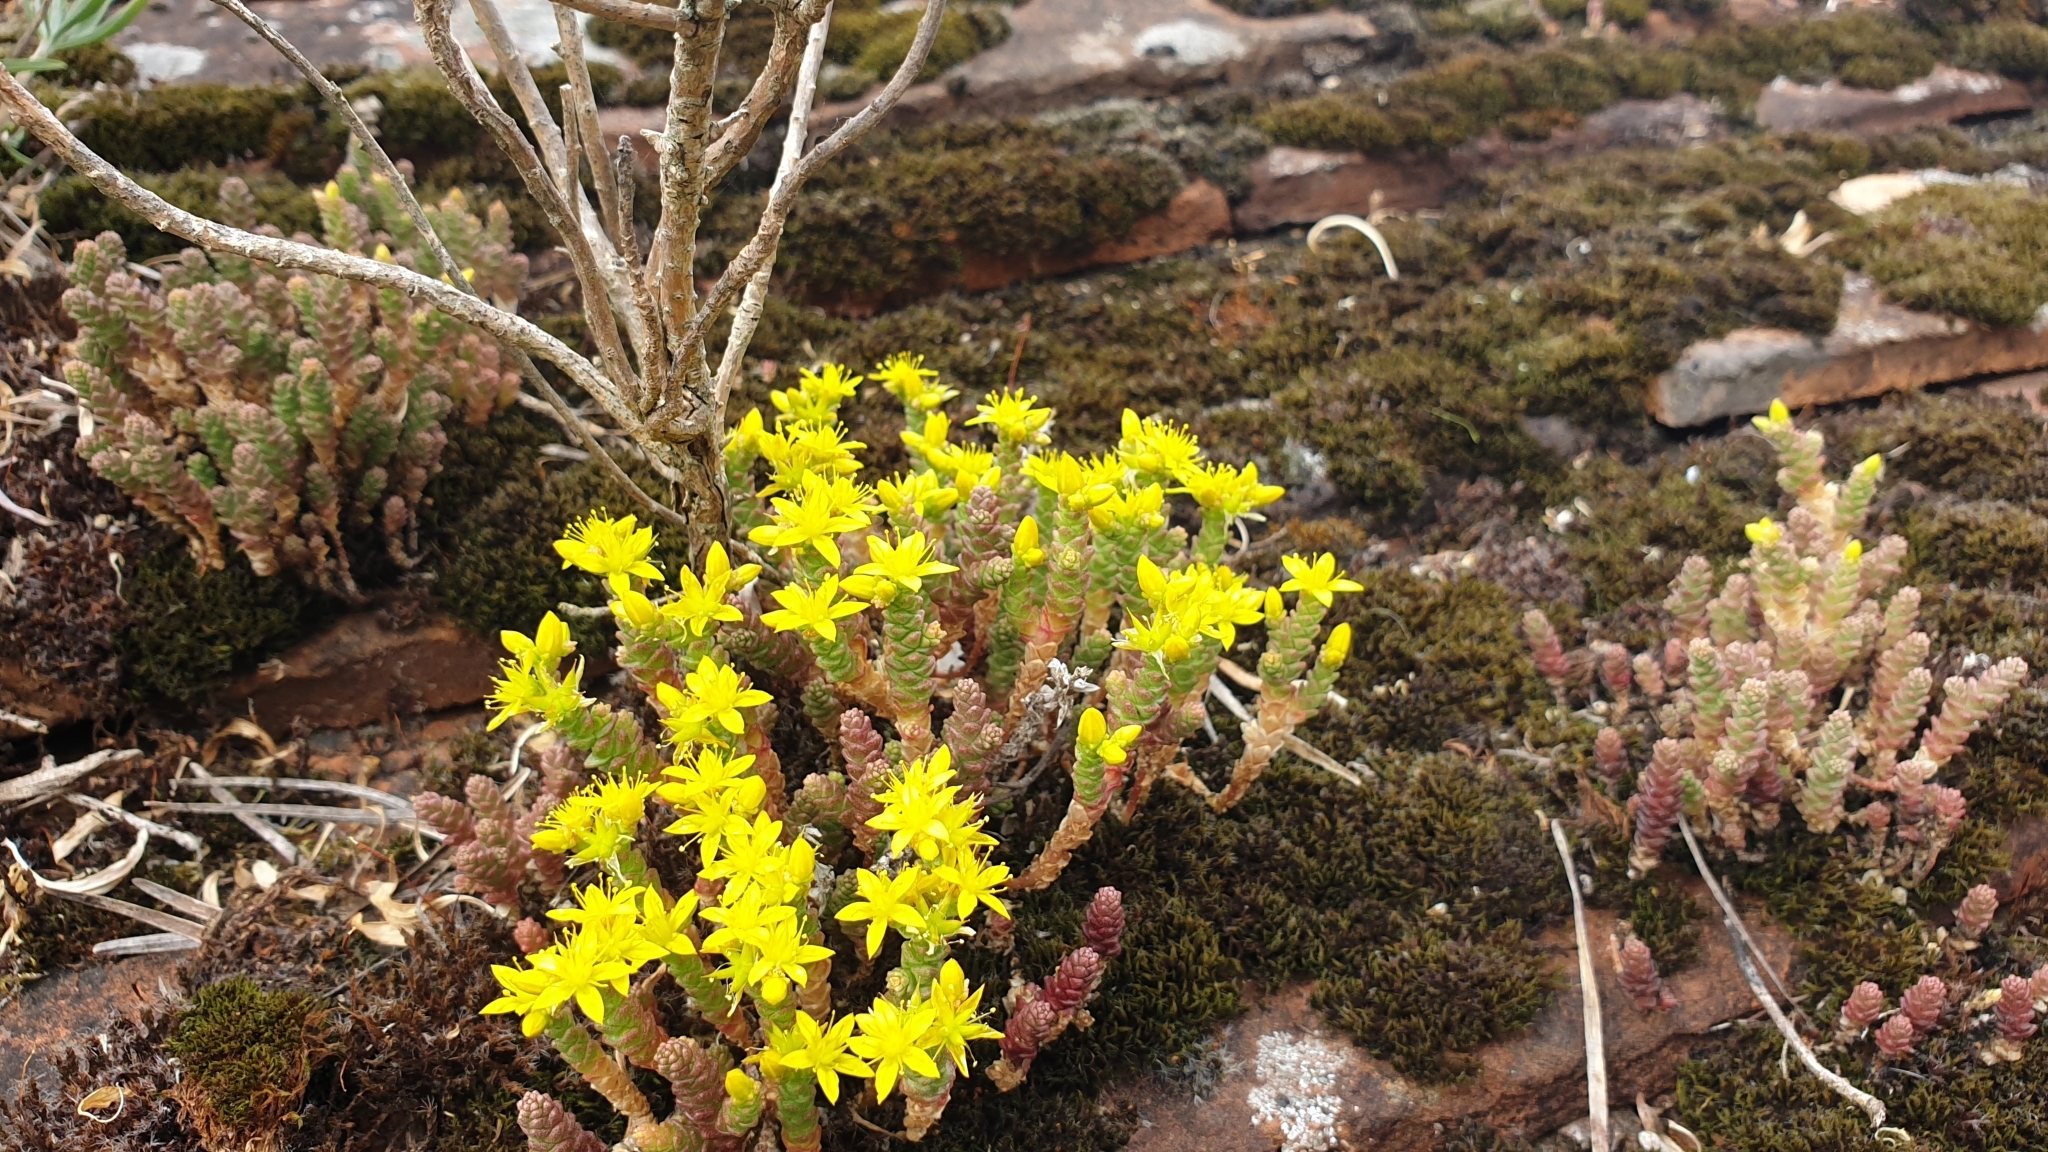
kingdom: Plantae
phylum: Tracheophyta
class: Magnoliopsida
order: Saxifragales
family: Crassulaceae
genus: Sedum
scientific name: Sedum acre
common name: Biting stonecrop
